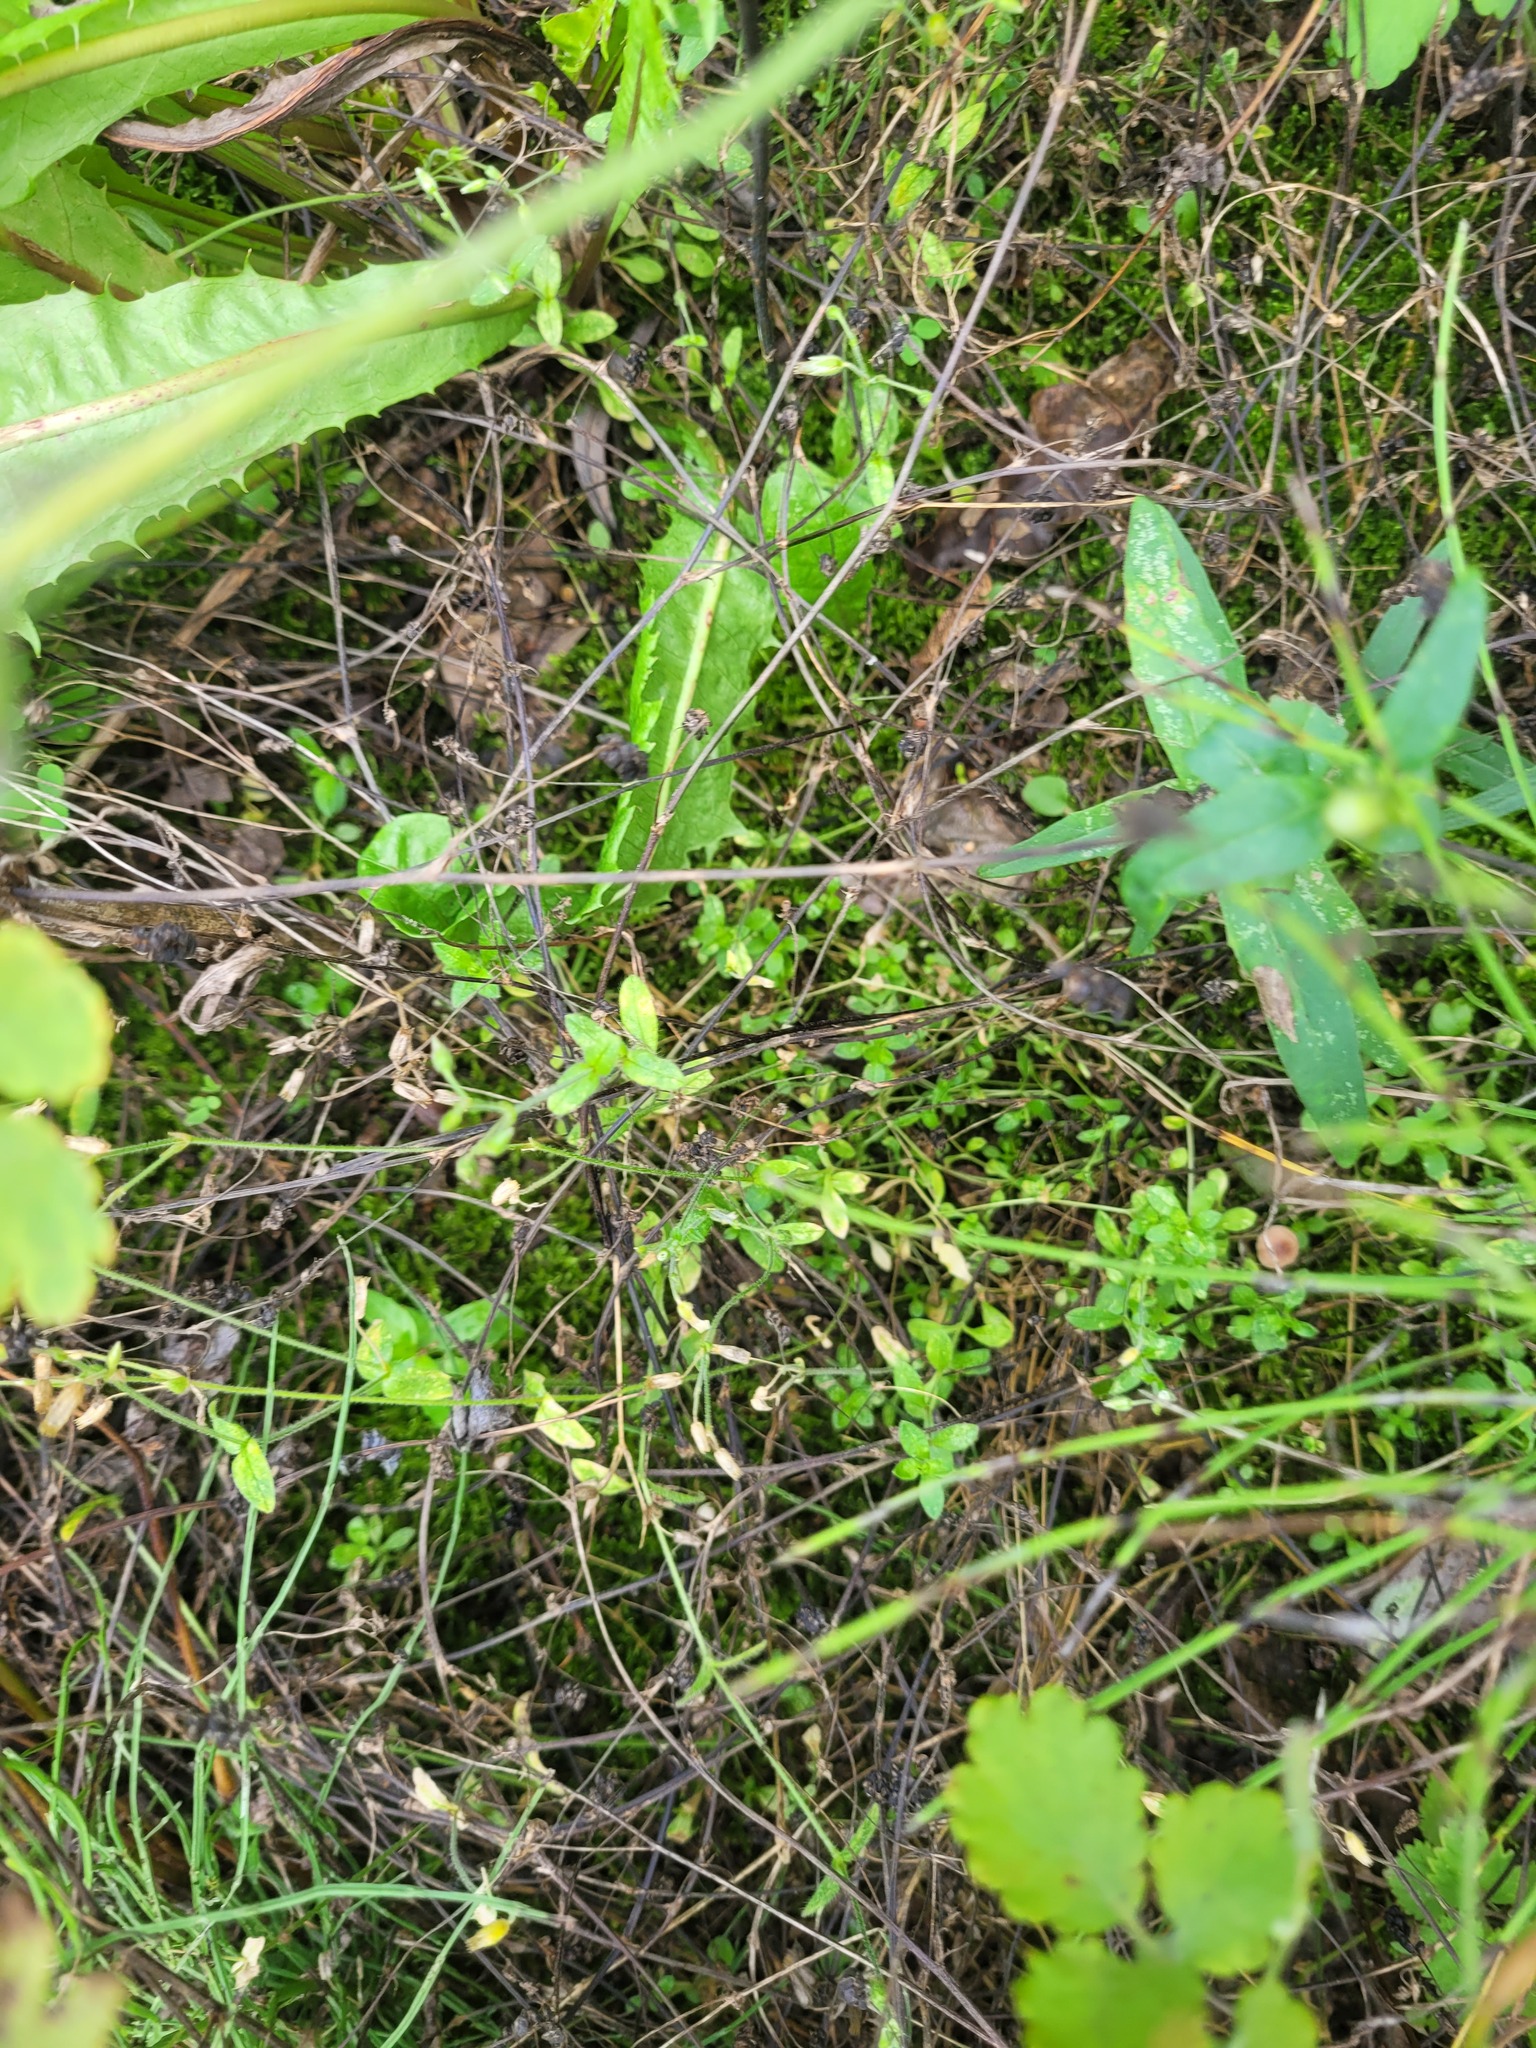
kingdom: Plantae
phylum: Tracheophyta
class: Magnoliopsida
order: Caryophyllales
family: Caryophyllaceae
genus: Cerastium
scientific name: Cerastium holosteoides
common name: Big chickweed
